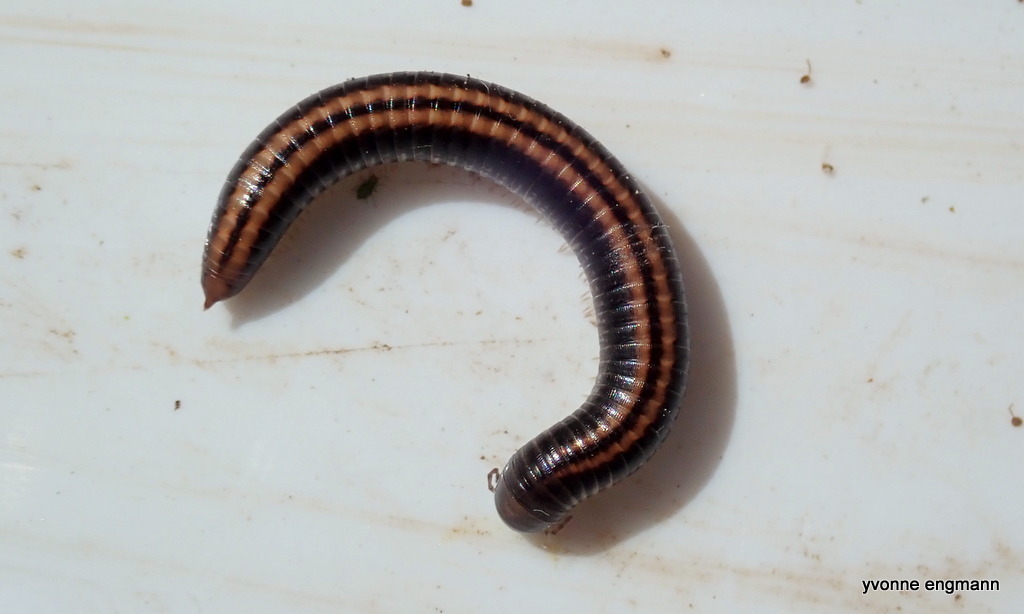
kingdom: Animalia
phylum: Arthropoda
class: Diplopoda
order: Julida
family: Julidae
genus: Ommatoiulus
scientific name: Ommatoiulus sabulosus
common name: Striped millipede
